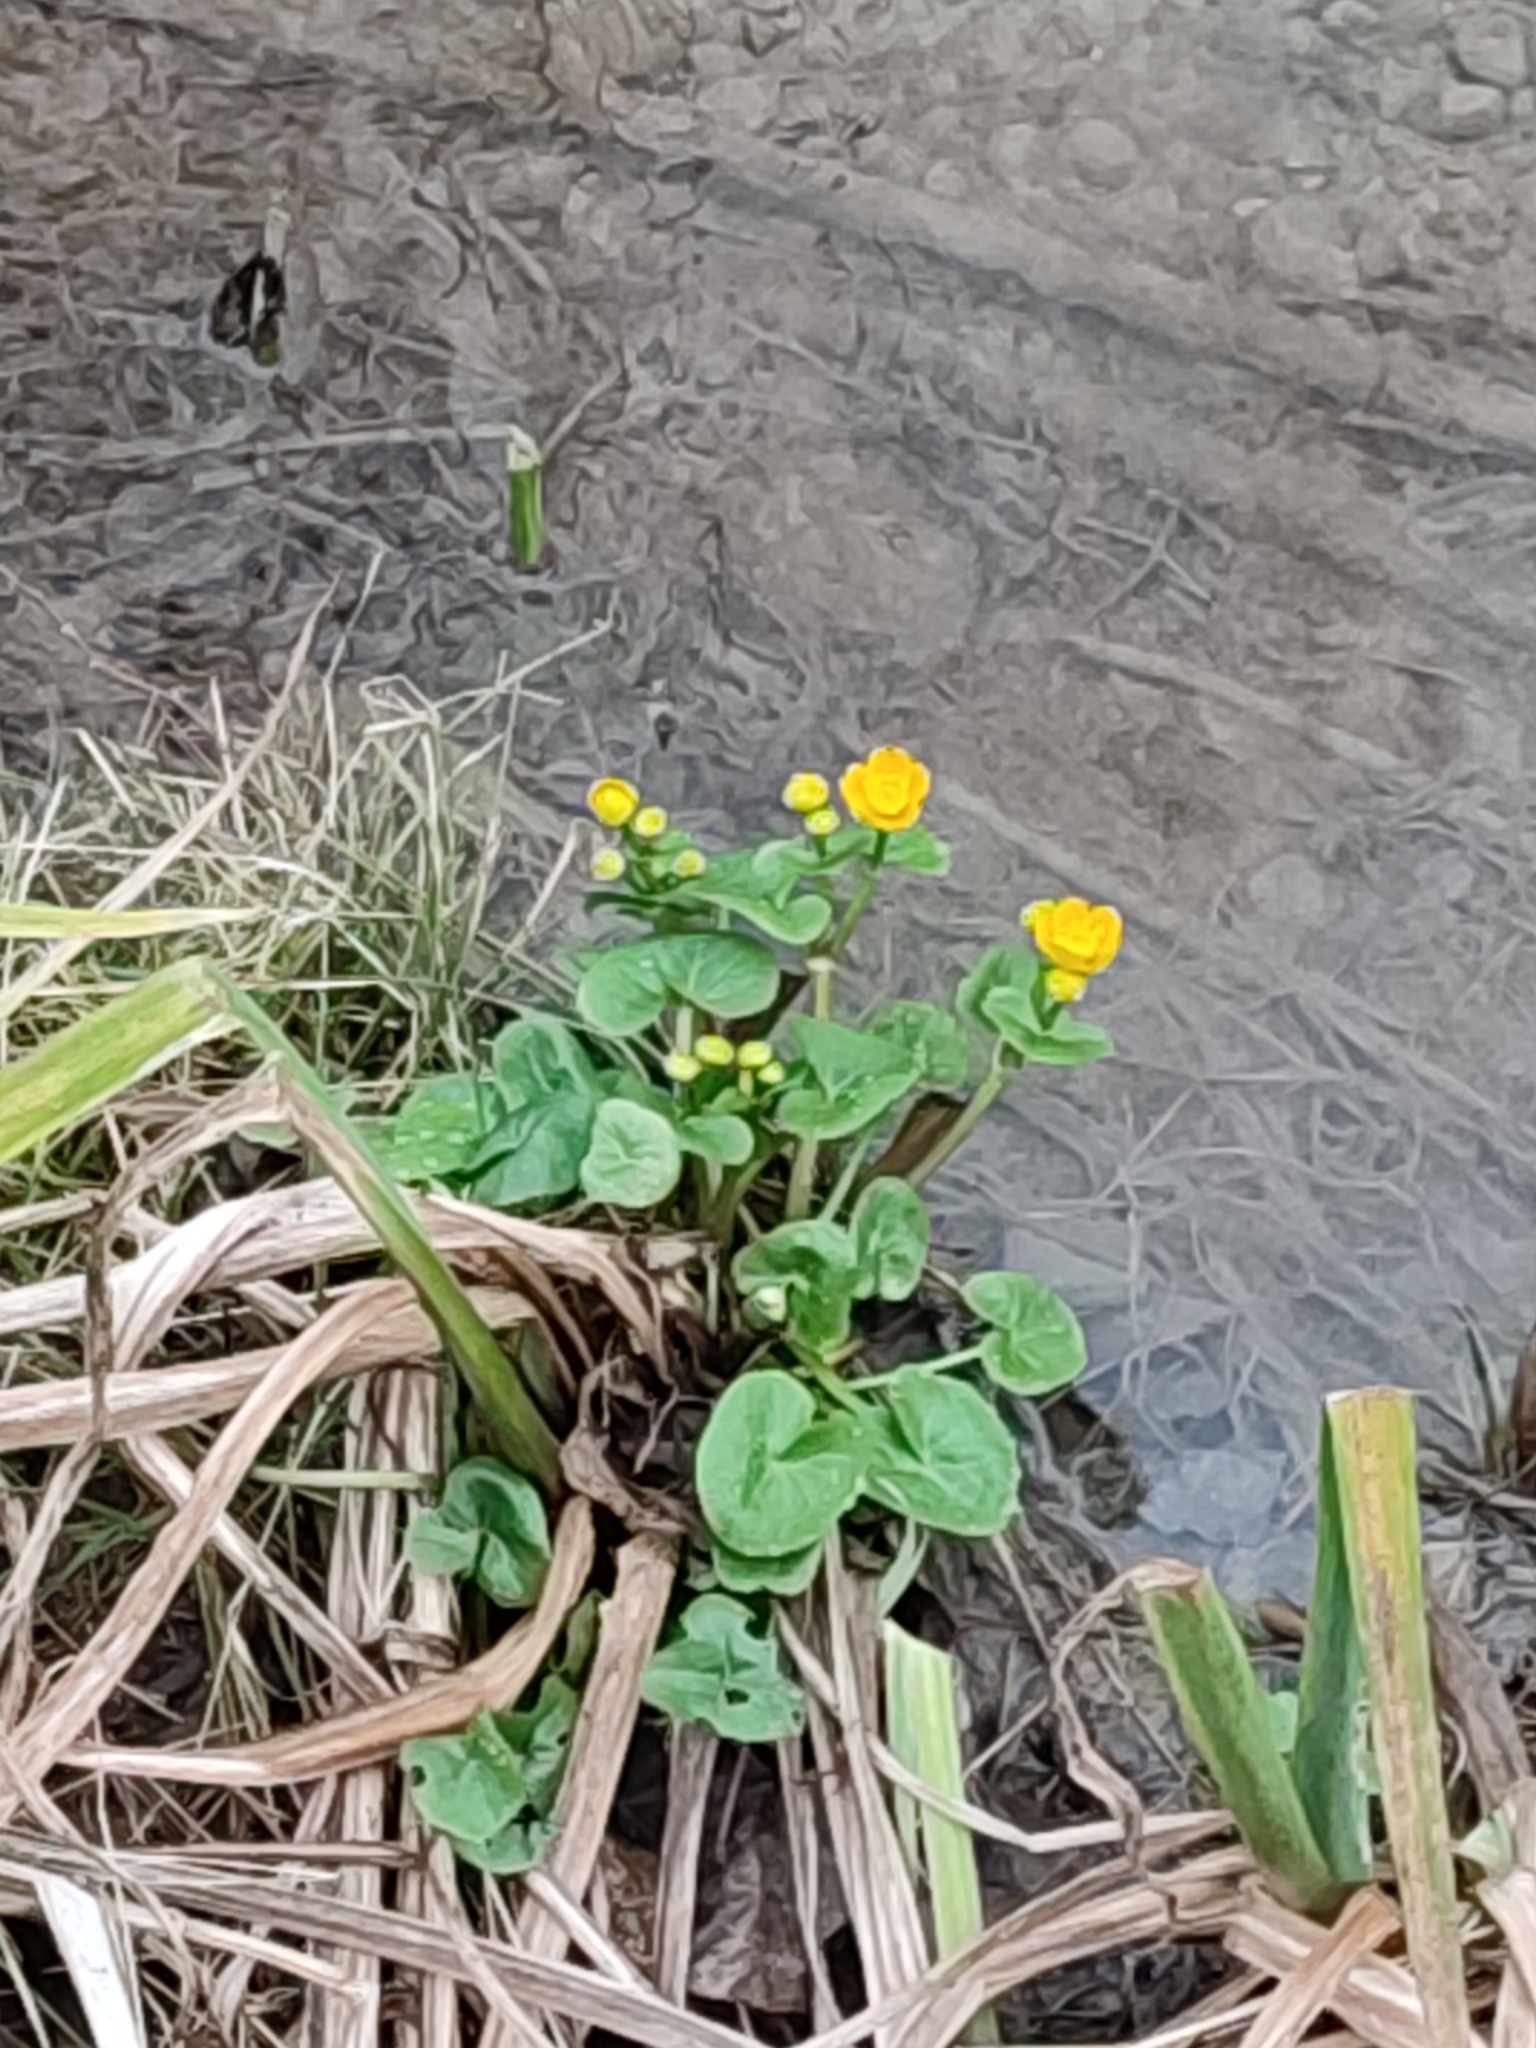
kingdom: Plantae
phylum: Tracheophyta
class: Magnoliopsida
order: Ranunculales
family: Ranunculaceae
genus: Caltha
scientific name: Caltha palustris
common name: Marsh marigold
